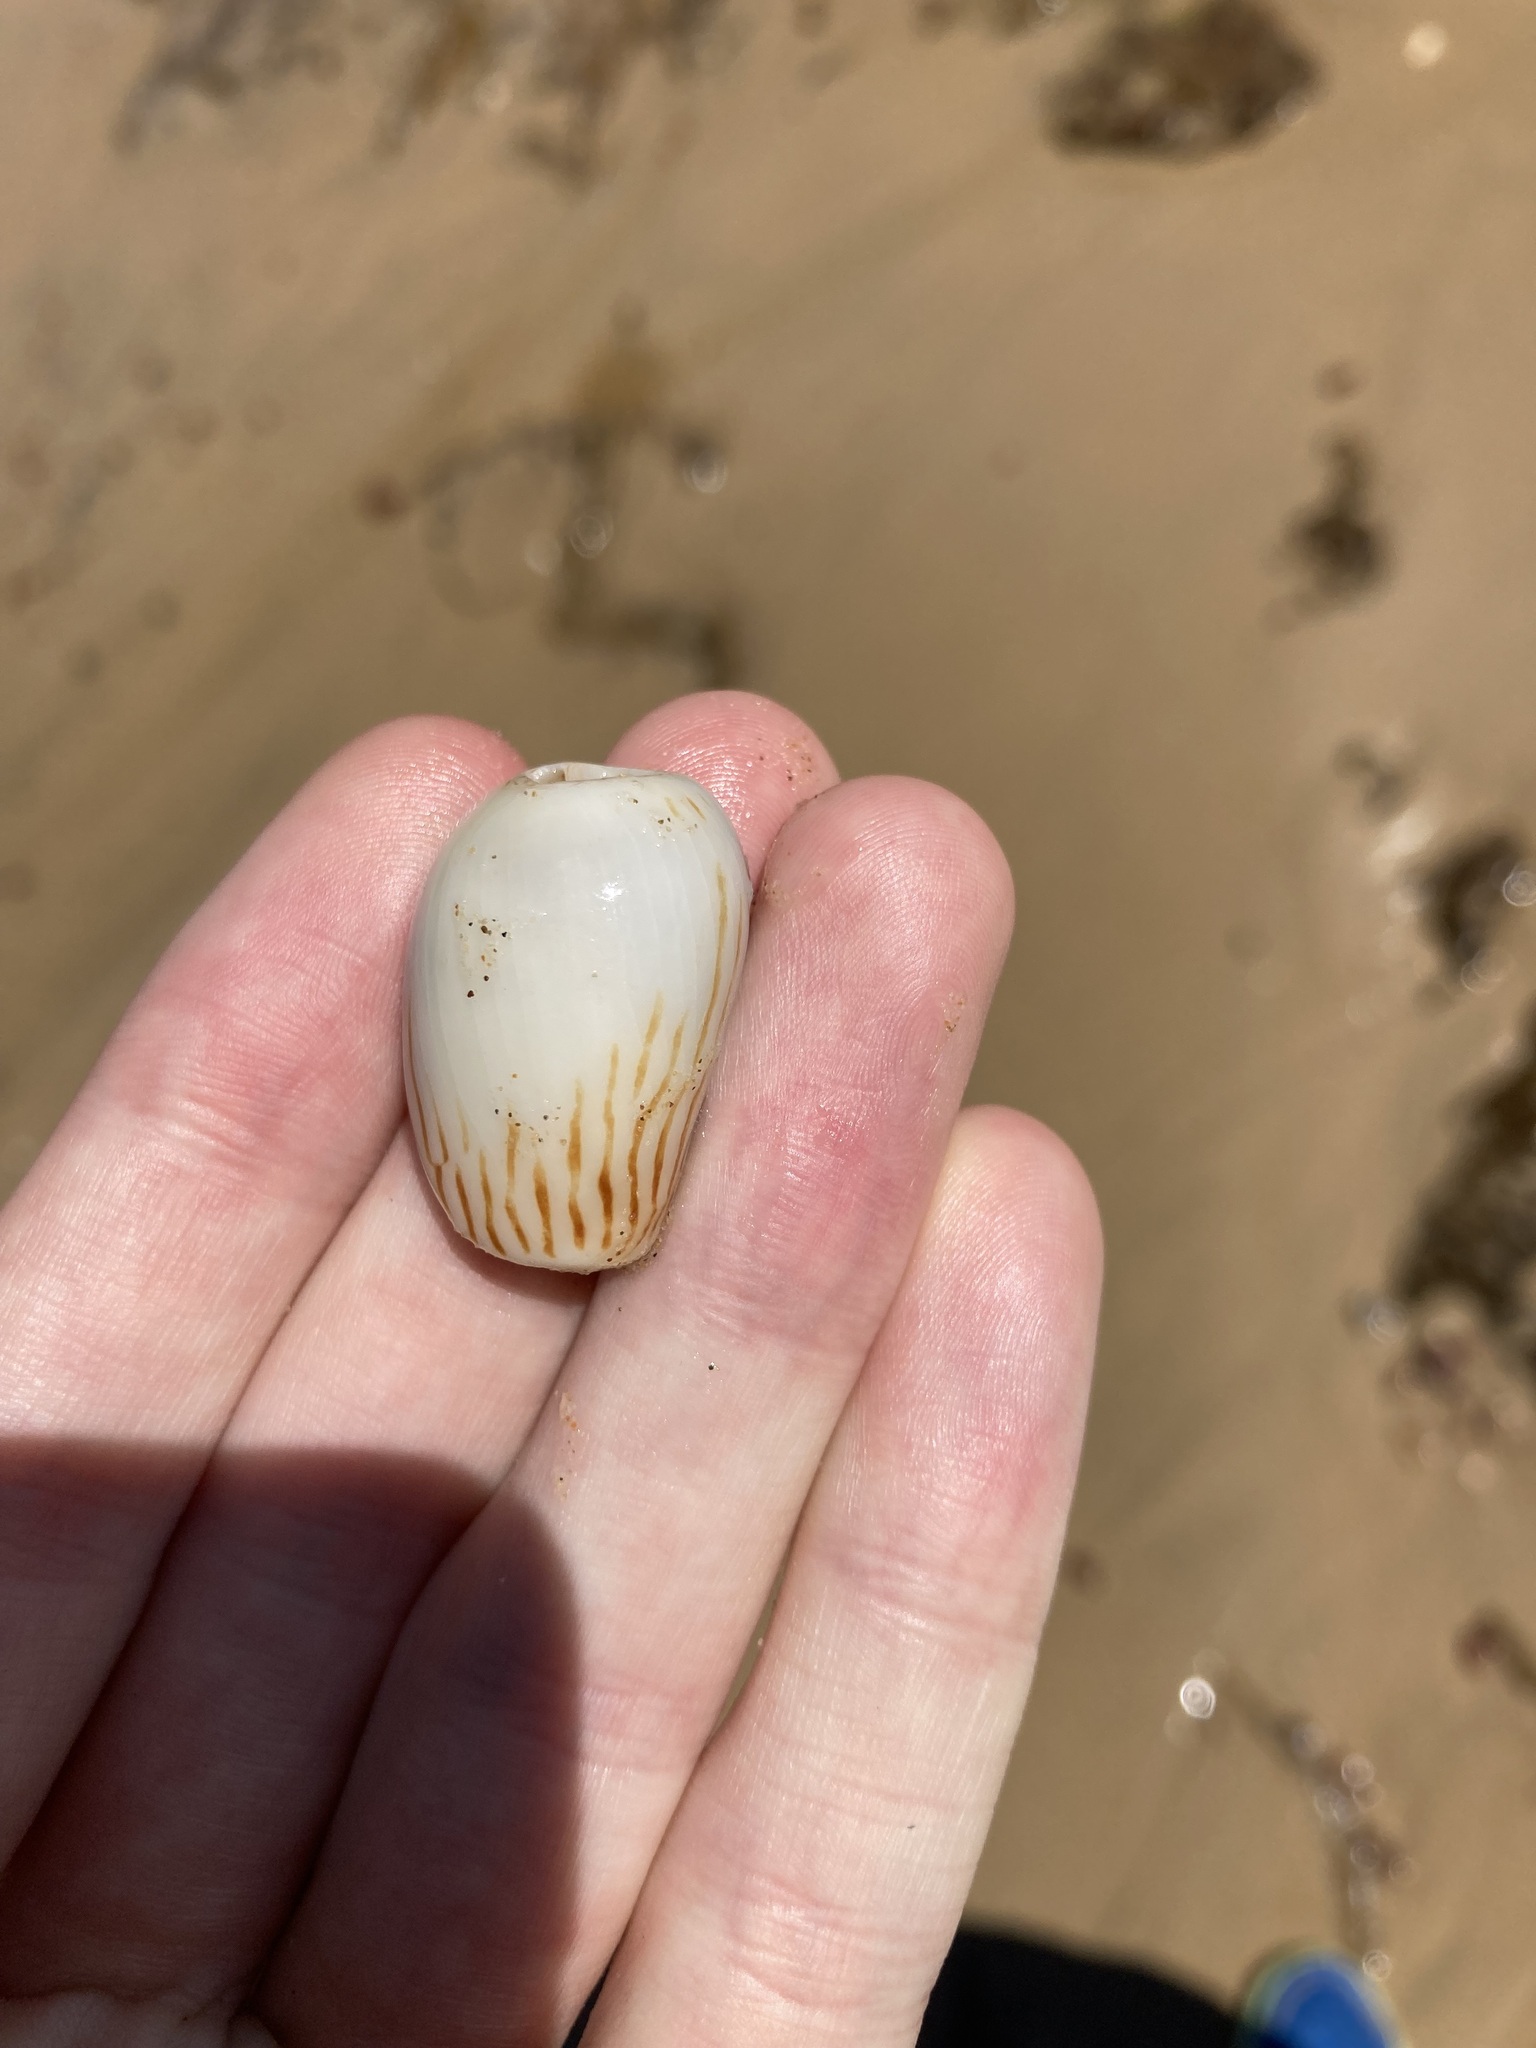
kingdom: Animalia
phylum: Mollusca
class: Gastropoda
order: Neogastropoda
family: Volutidae
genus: Amoria
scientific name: Amoria zebra
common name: Zebra volute
